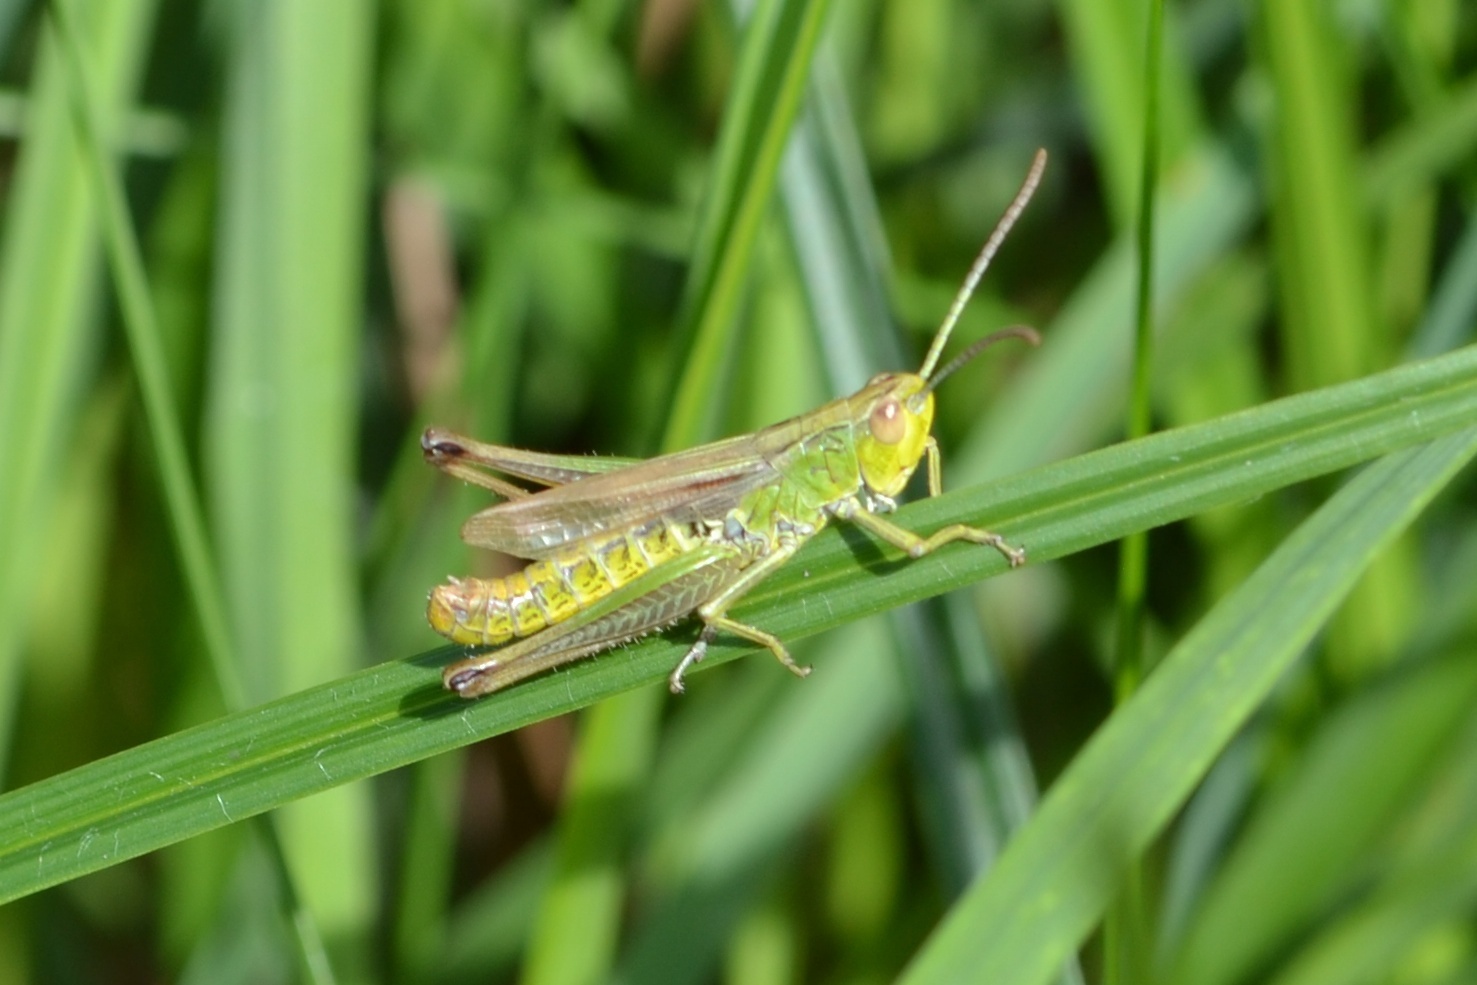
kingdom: Animalia
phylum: Arthropoda
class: Insecta
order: Orthoptera
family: Acrididae
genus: Pseudochorthippus
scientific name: Pseudochorthippus parallelus
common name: Meadow grasshopper
